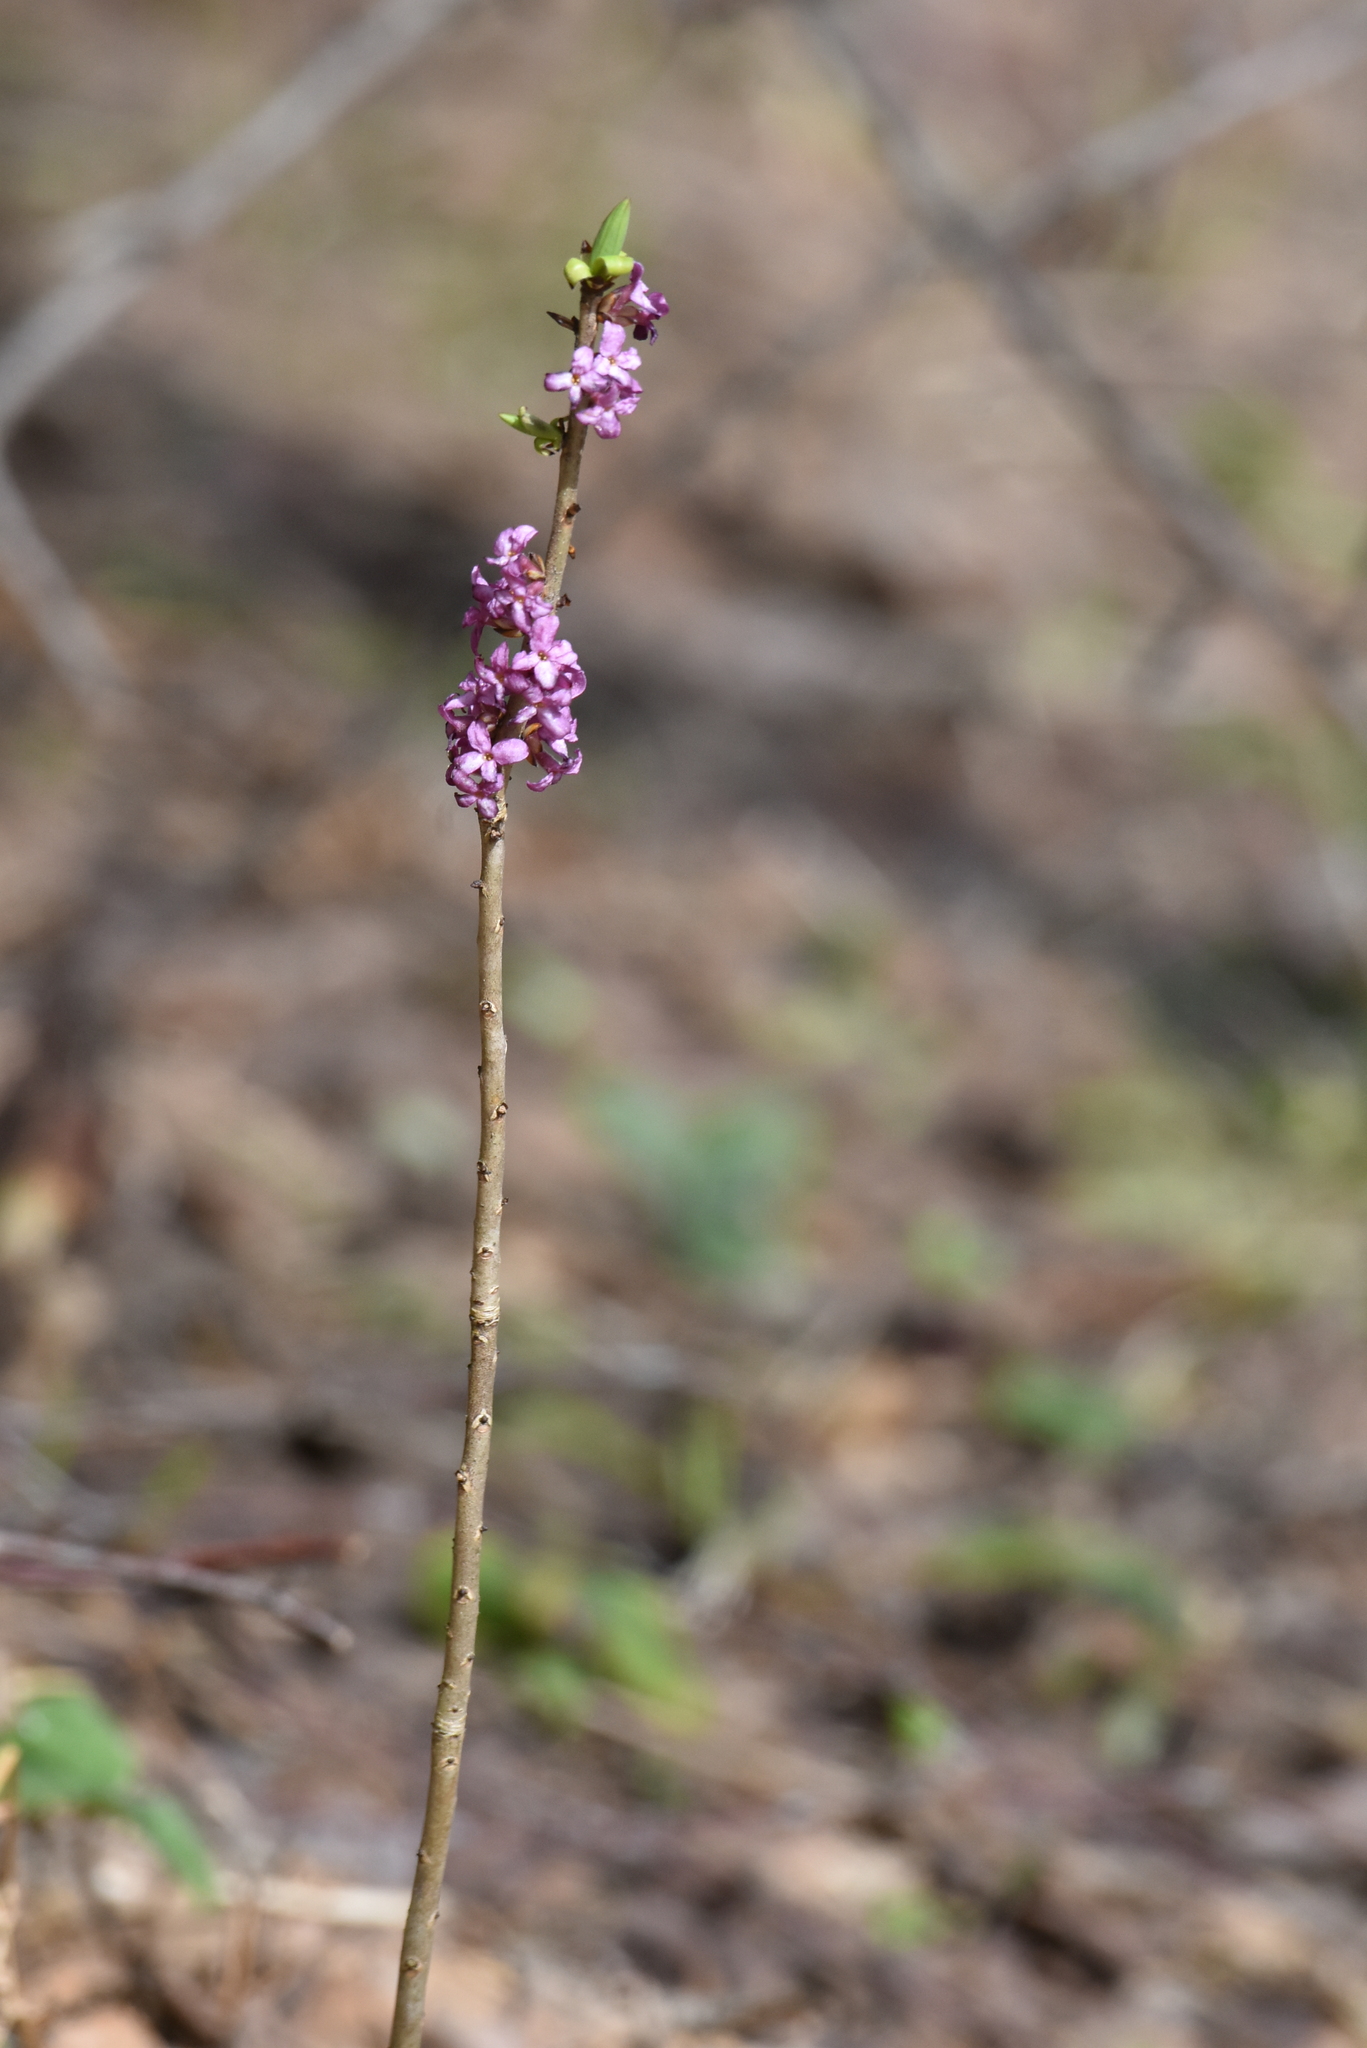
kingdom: Plantae
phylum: Tracheophyta
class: Magnoliopsida
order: Malvales
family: Thymelaeaceae
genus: Daphne
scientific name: Daphne mezereum
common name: Mezereon
